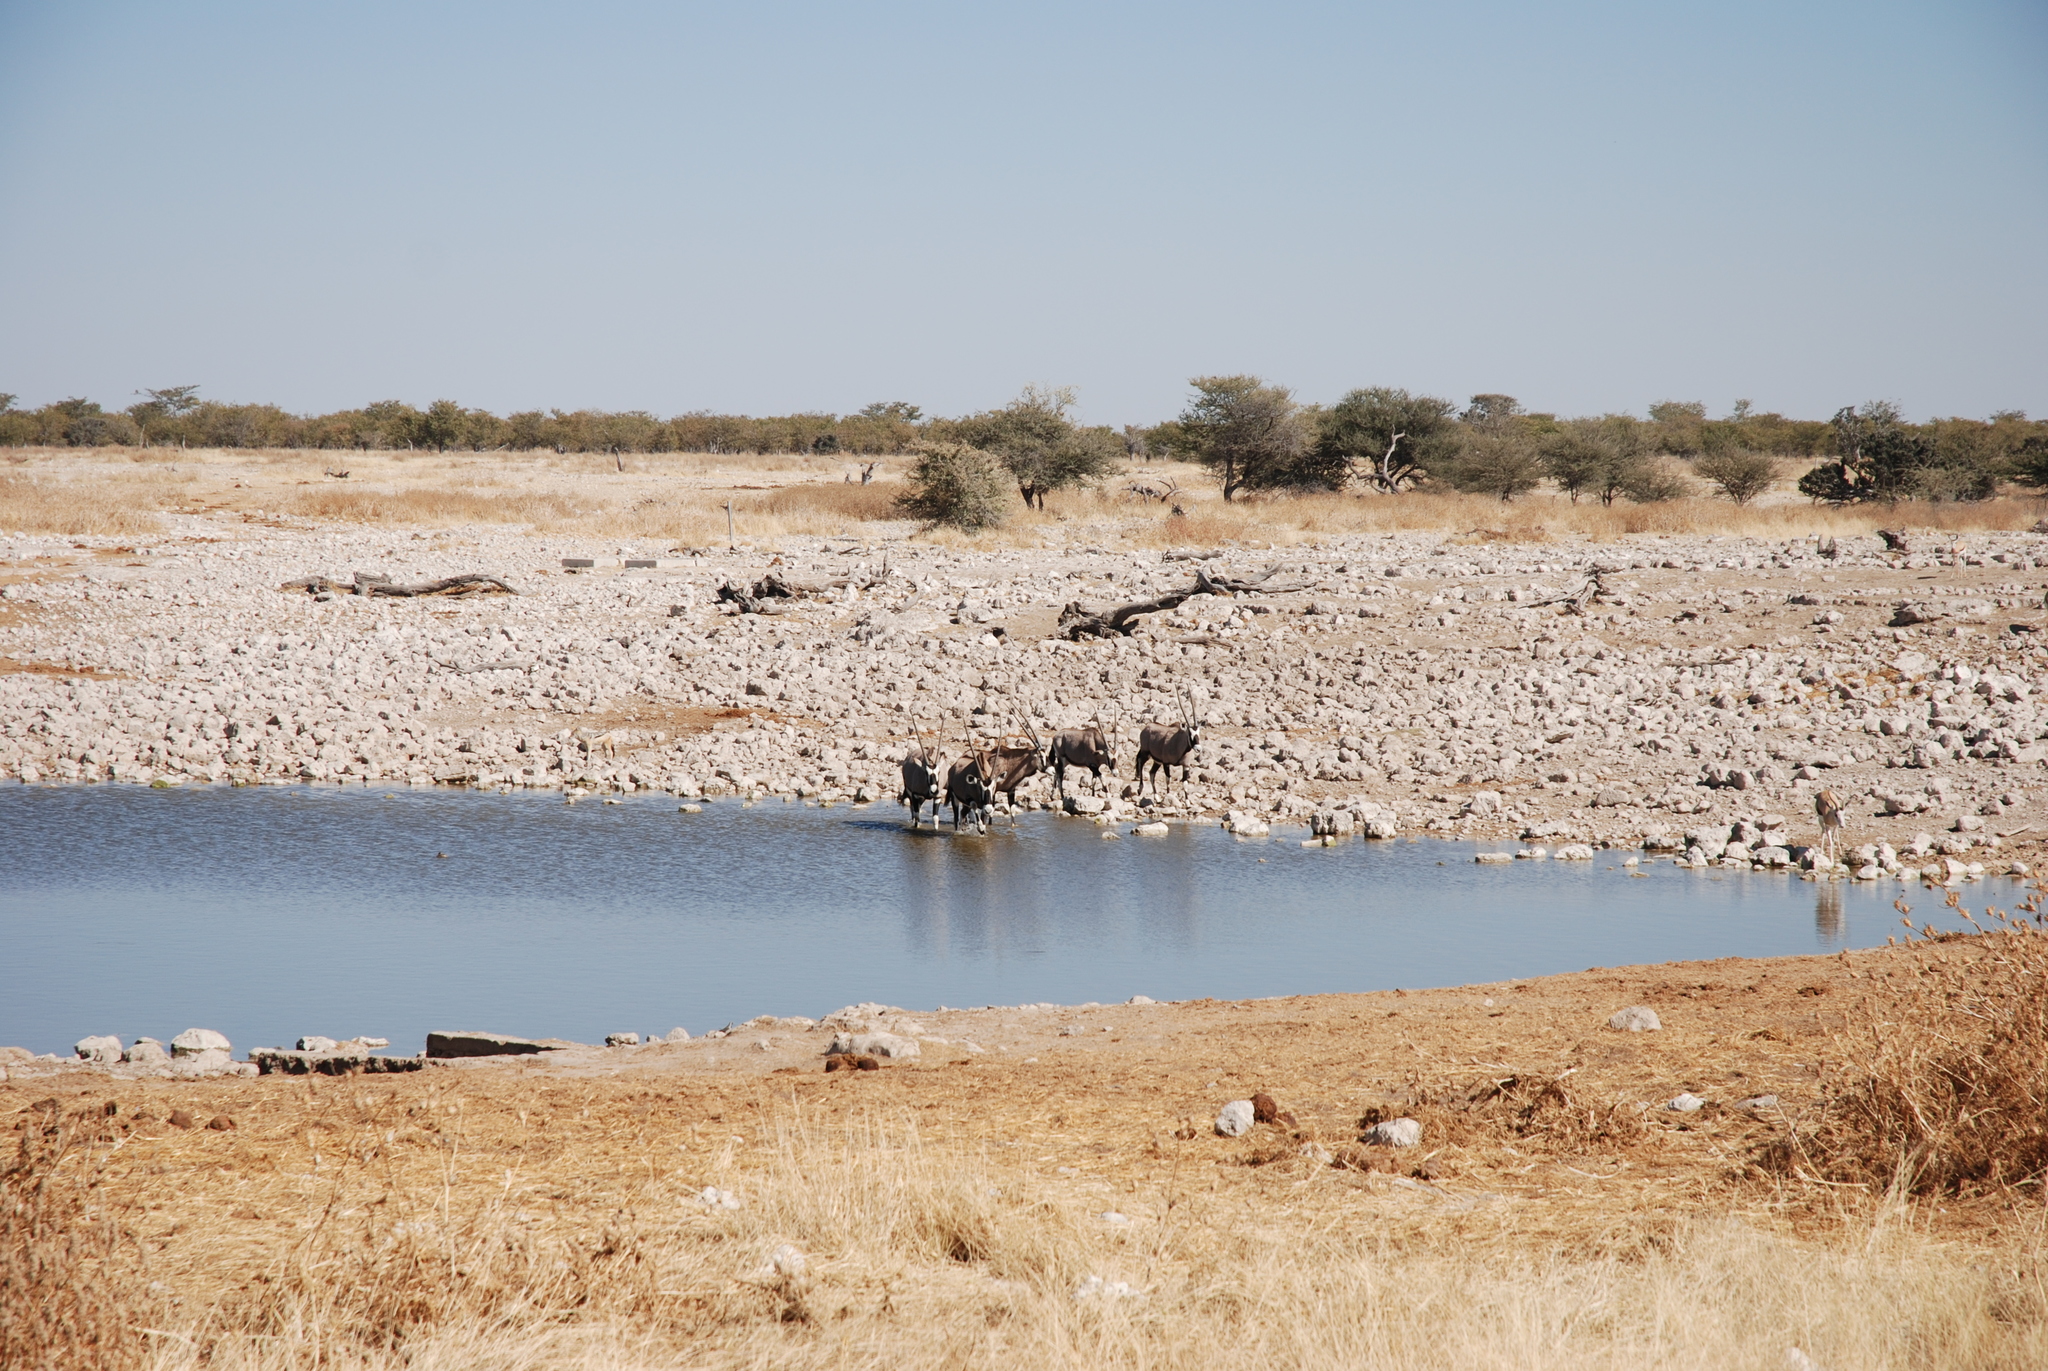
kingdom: Animalia
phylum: Chordata
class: Mammalia
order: Artiodactyla
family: Bovidae
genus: Oryx
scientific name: Oryx gazella
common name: Gemsbok
